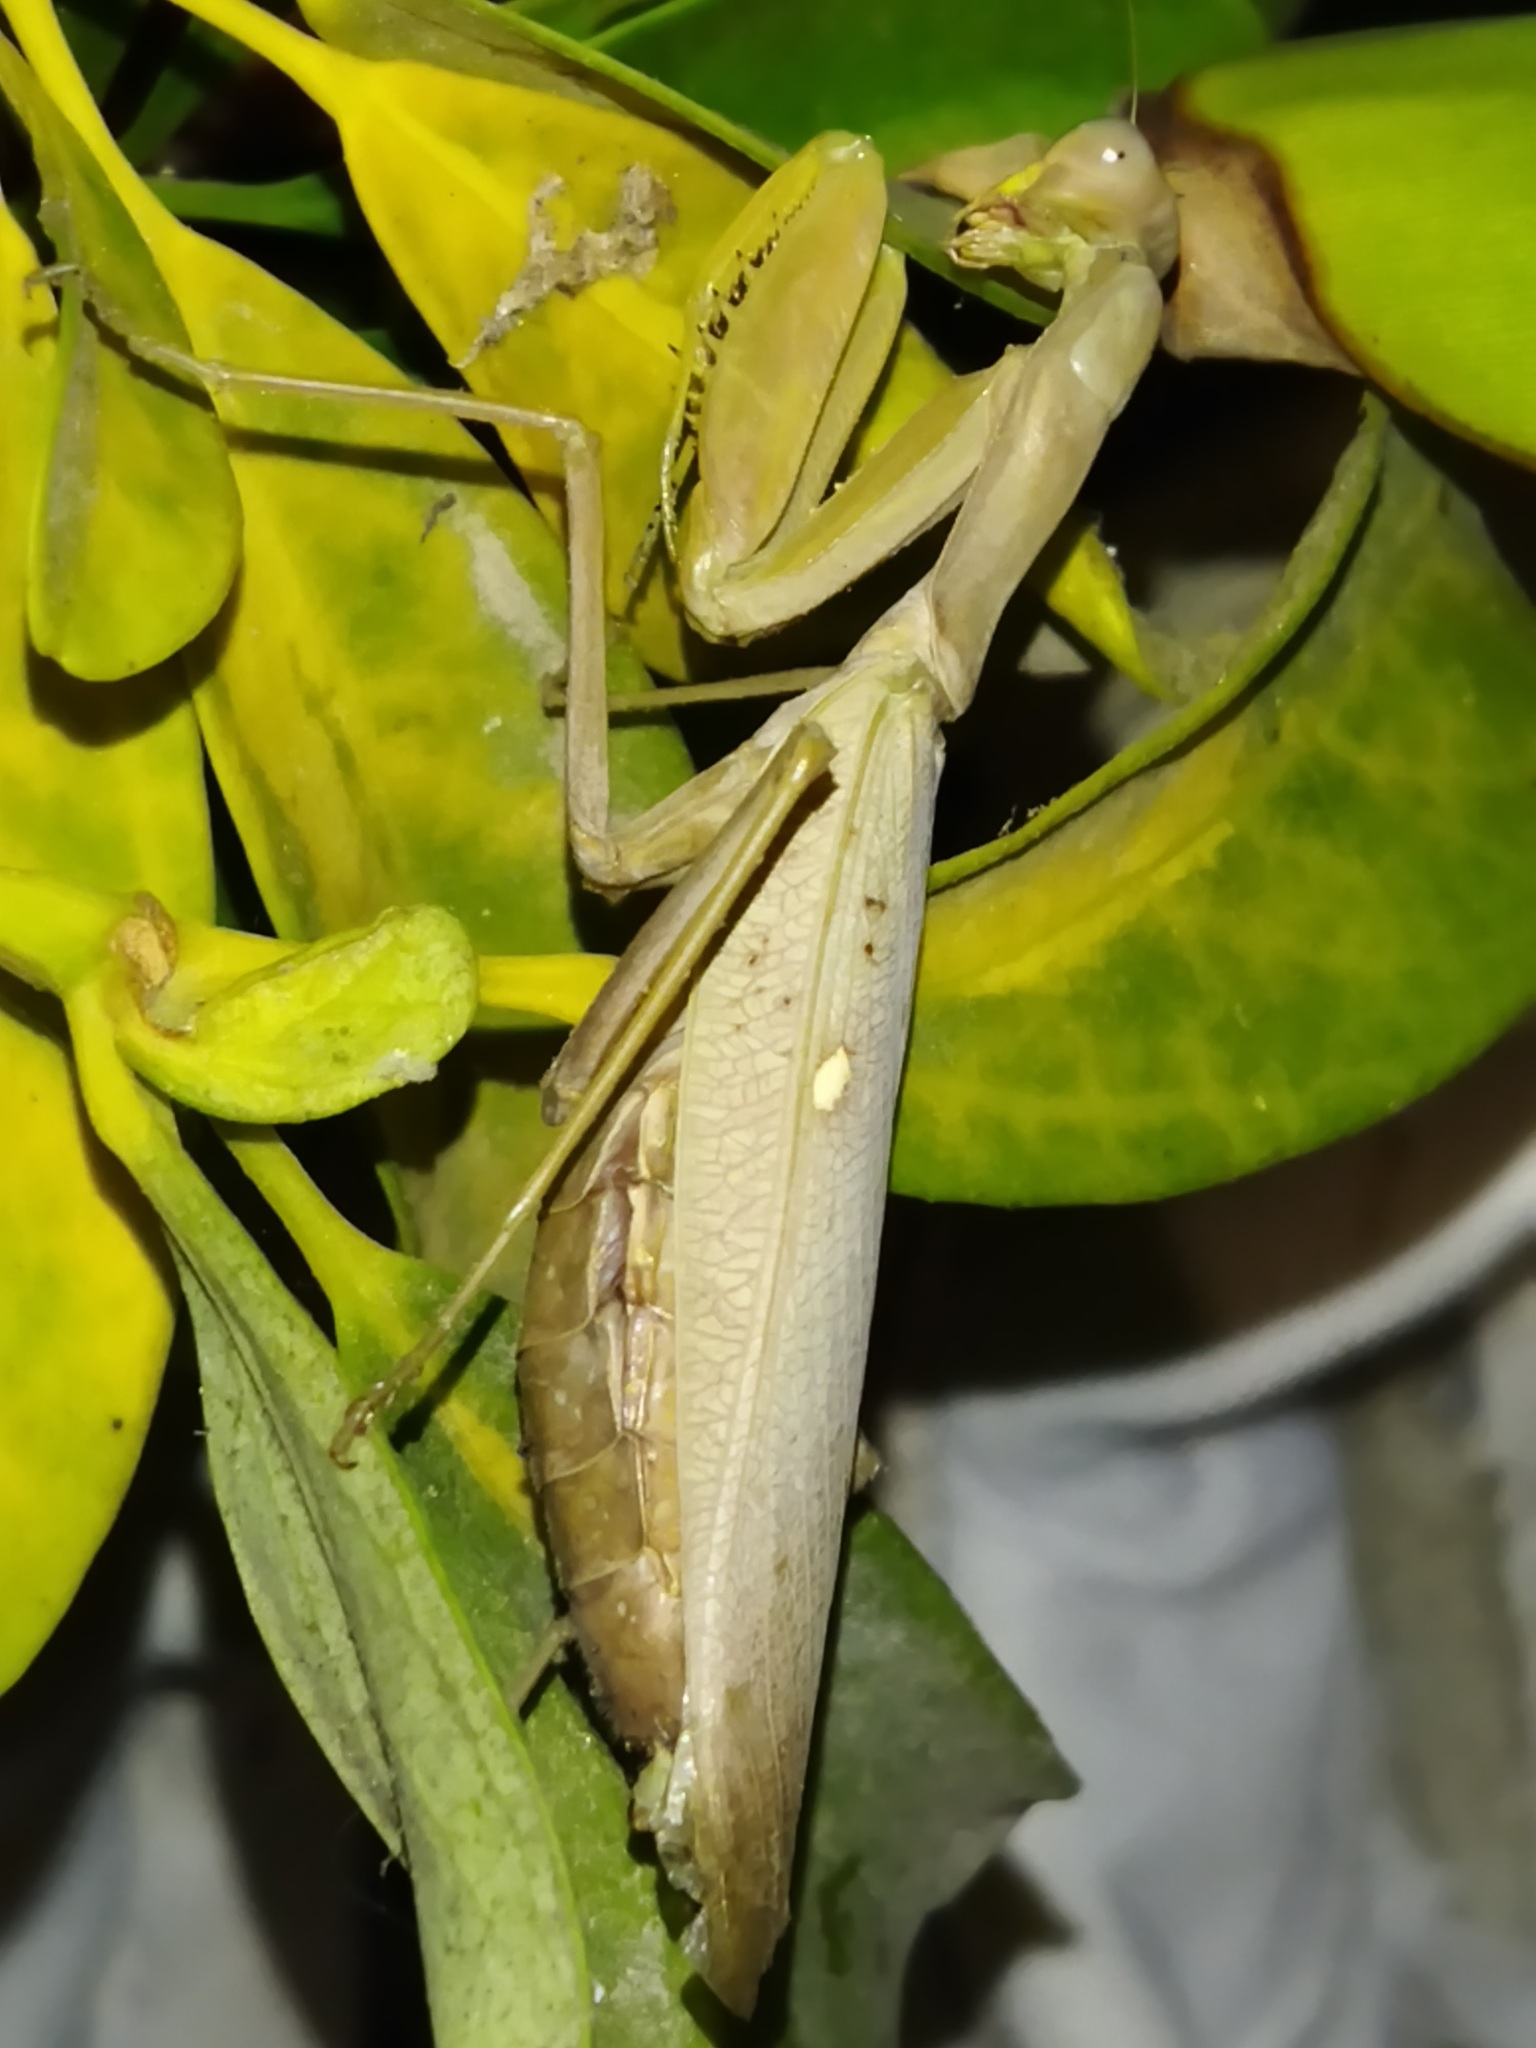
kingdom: Animalia
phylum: Arthropoda
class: Insecta
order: Mantodea
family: Mantidae
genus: Hierodula
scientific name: Hierodula transcaucasica
